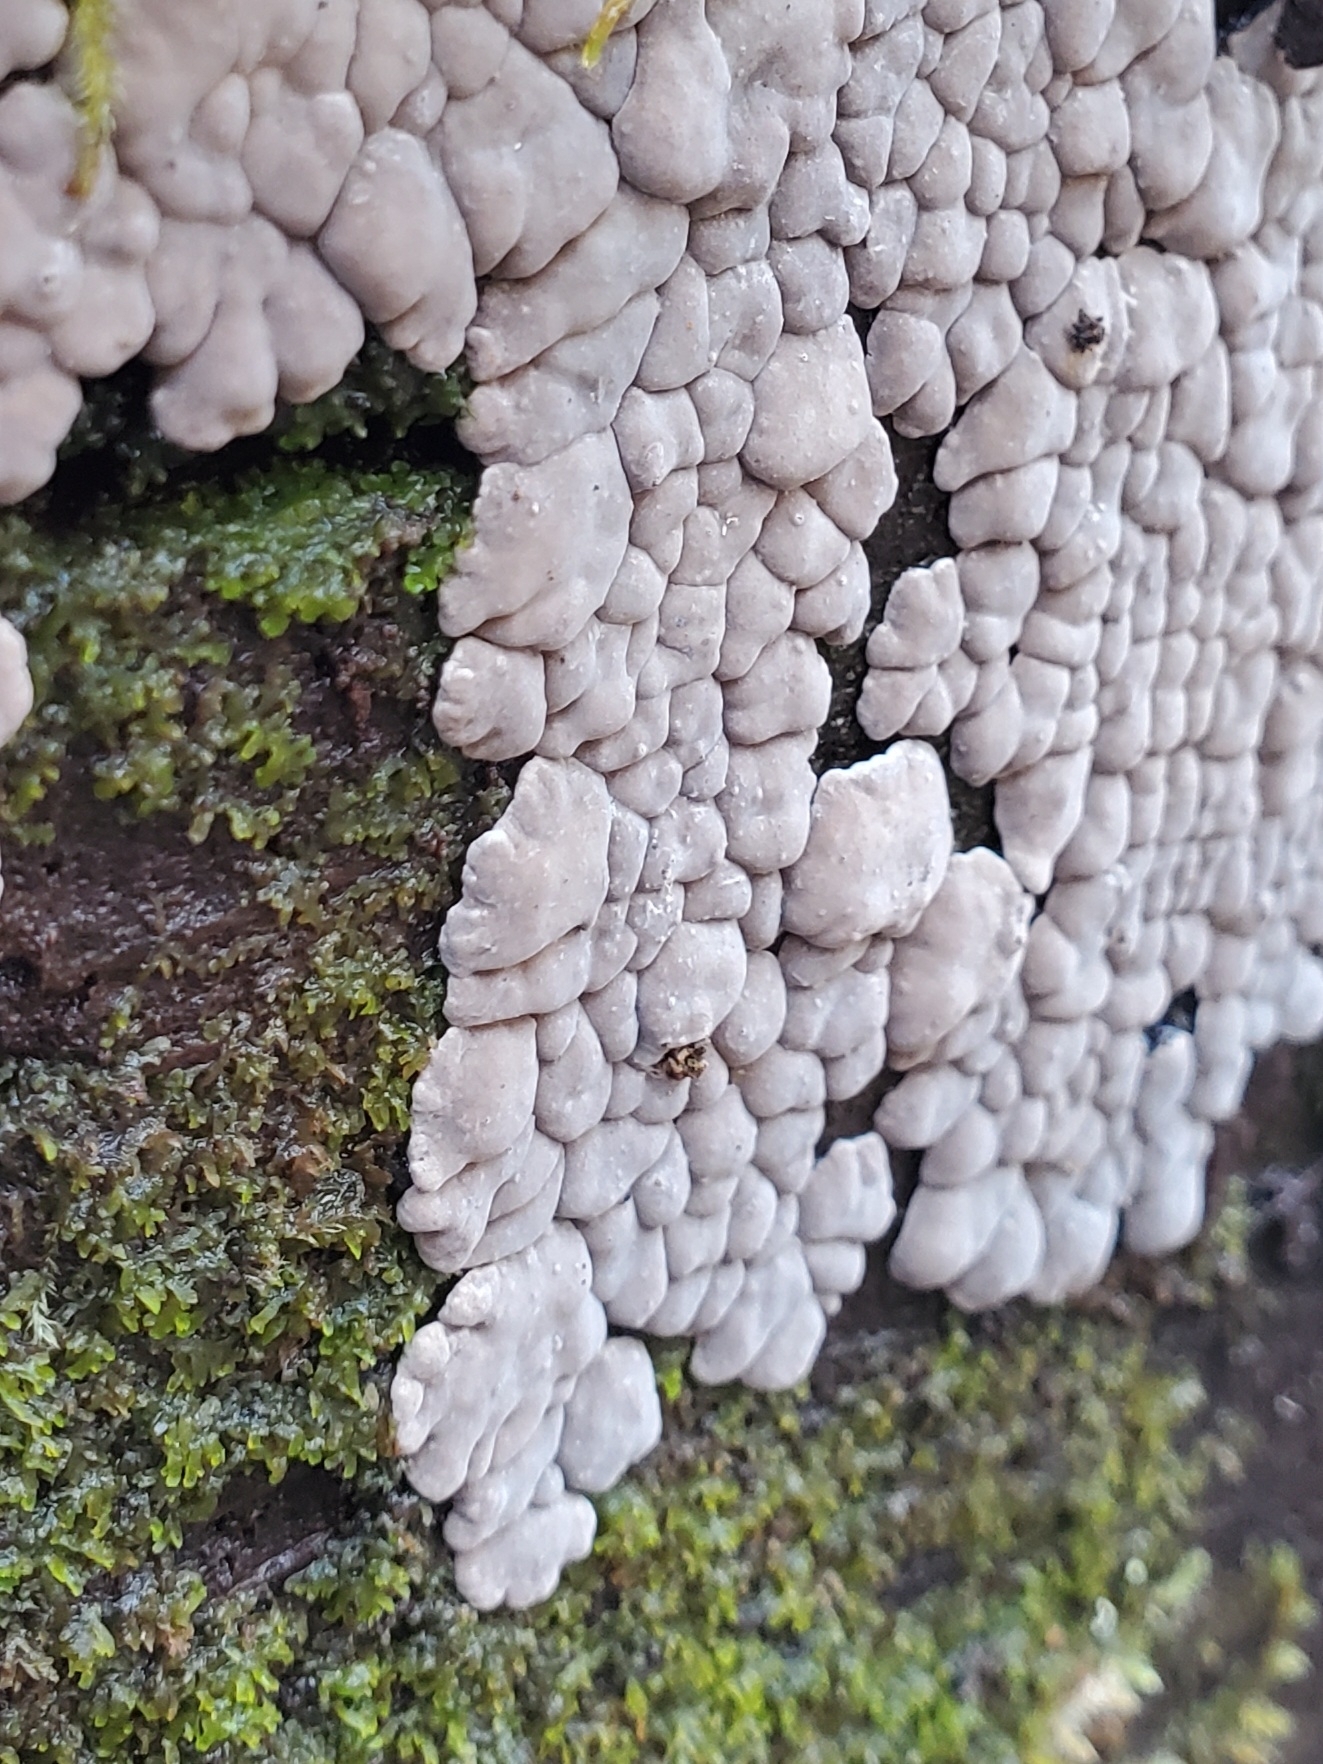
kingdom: Fungi
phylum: Basidiomycota
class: Agaricomycetes
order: Russulales
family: Stereaceae
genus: Xylobolus
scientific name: Xylobolus frustulatus
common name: Ceramic parchment
